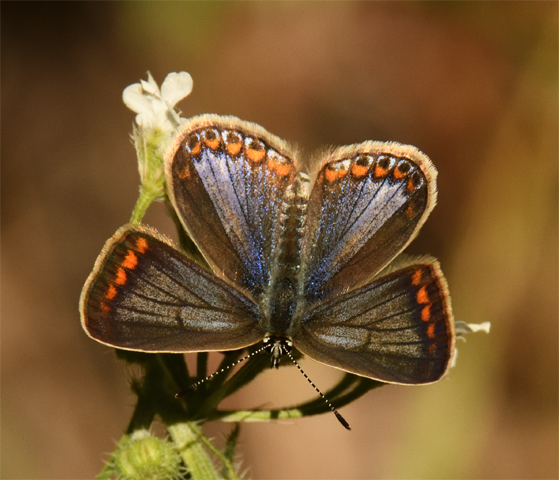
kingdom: Animalia
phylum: Arthropoda
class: Insecta
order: Lepidoptera
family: Lycaenidae
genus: Aricia
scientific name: Aricia agestis
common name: Brown argus
